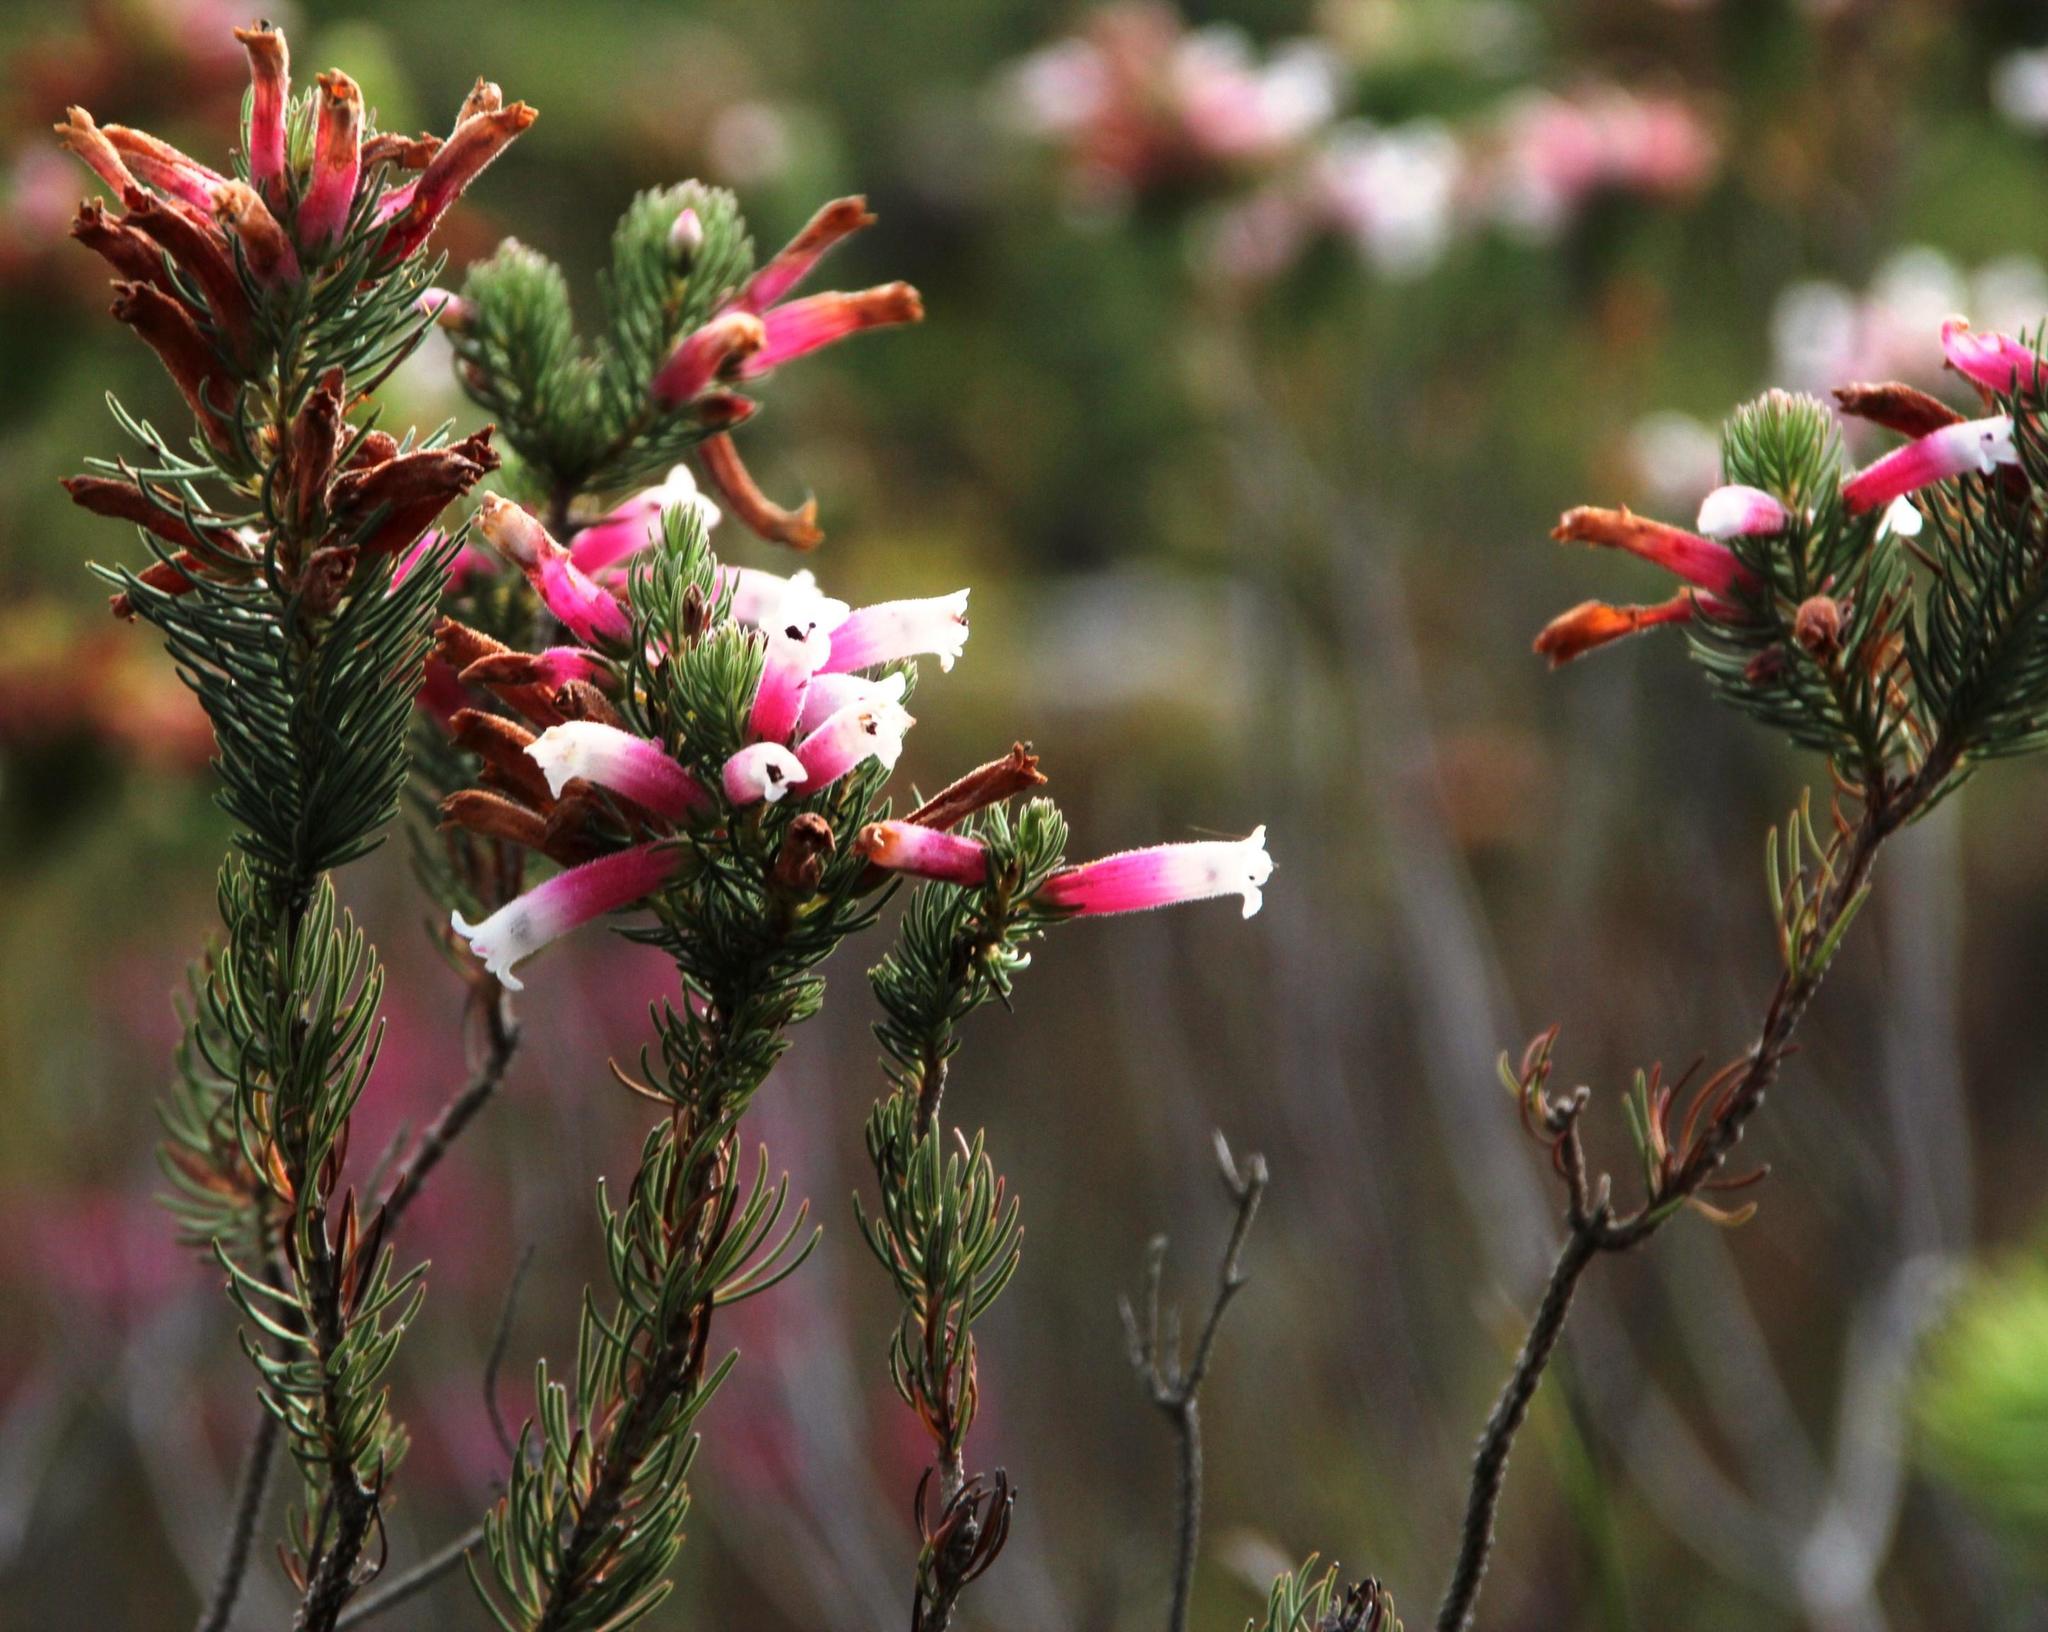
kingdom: Plantae
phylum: Tracheophyta
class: Magnoliopsida
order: Ericales
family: Ericaceae
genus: Erica
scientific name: Erica viscaria
